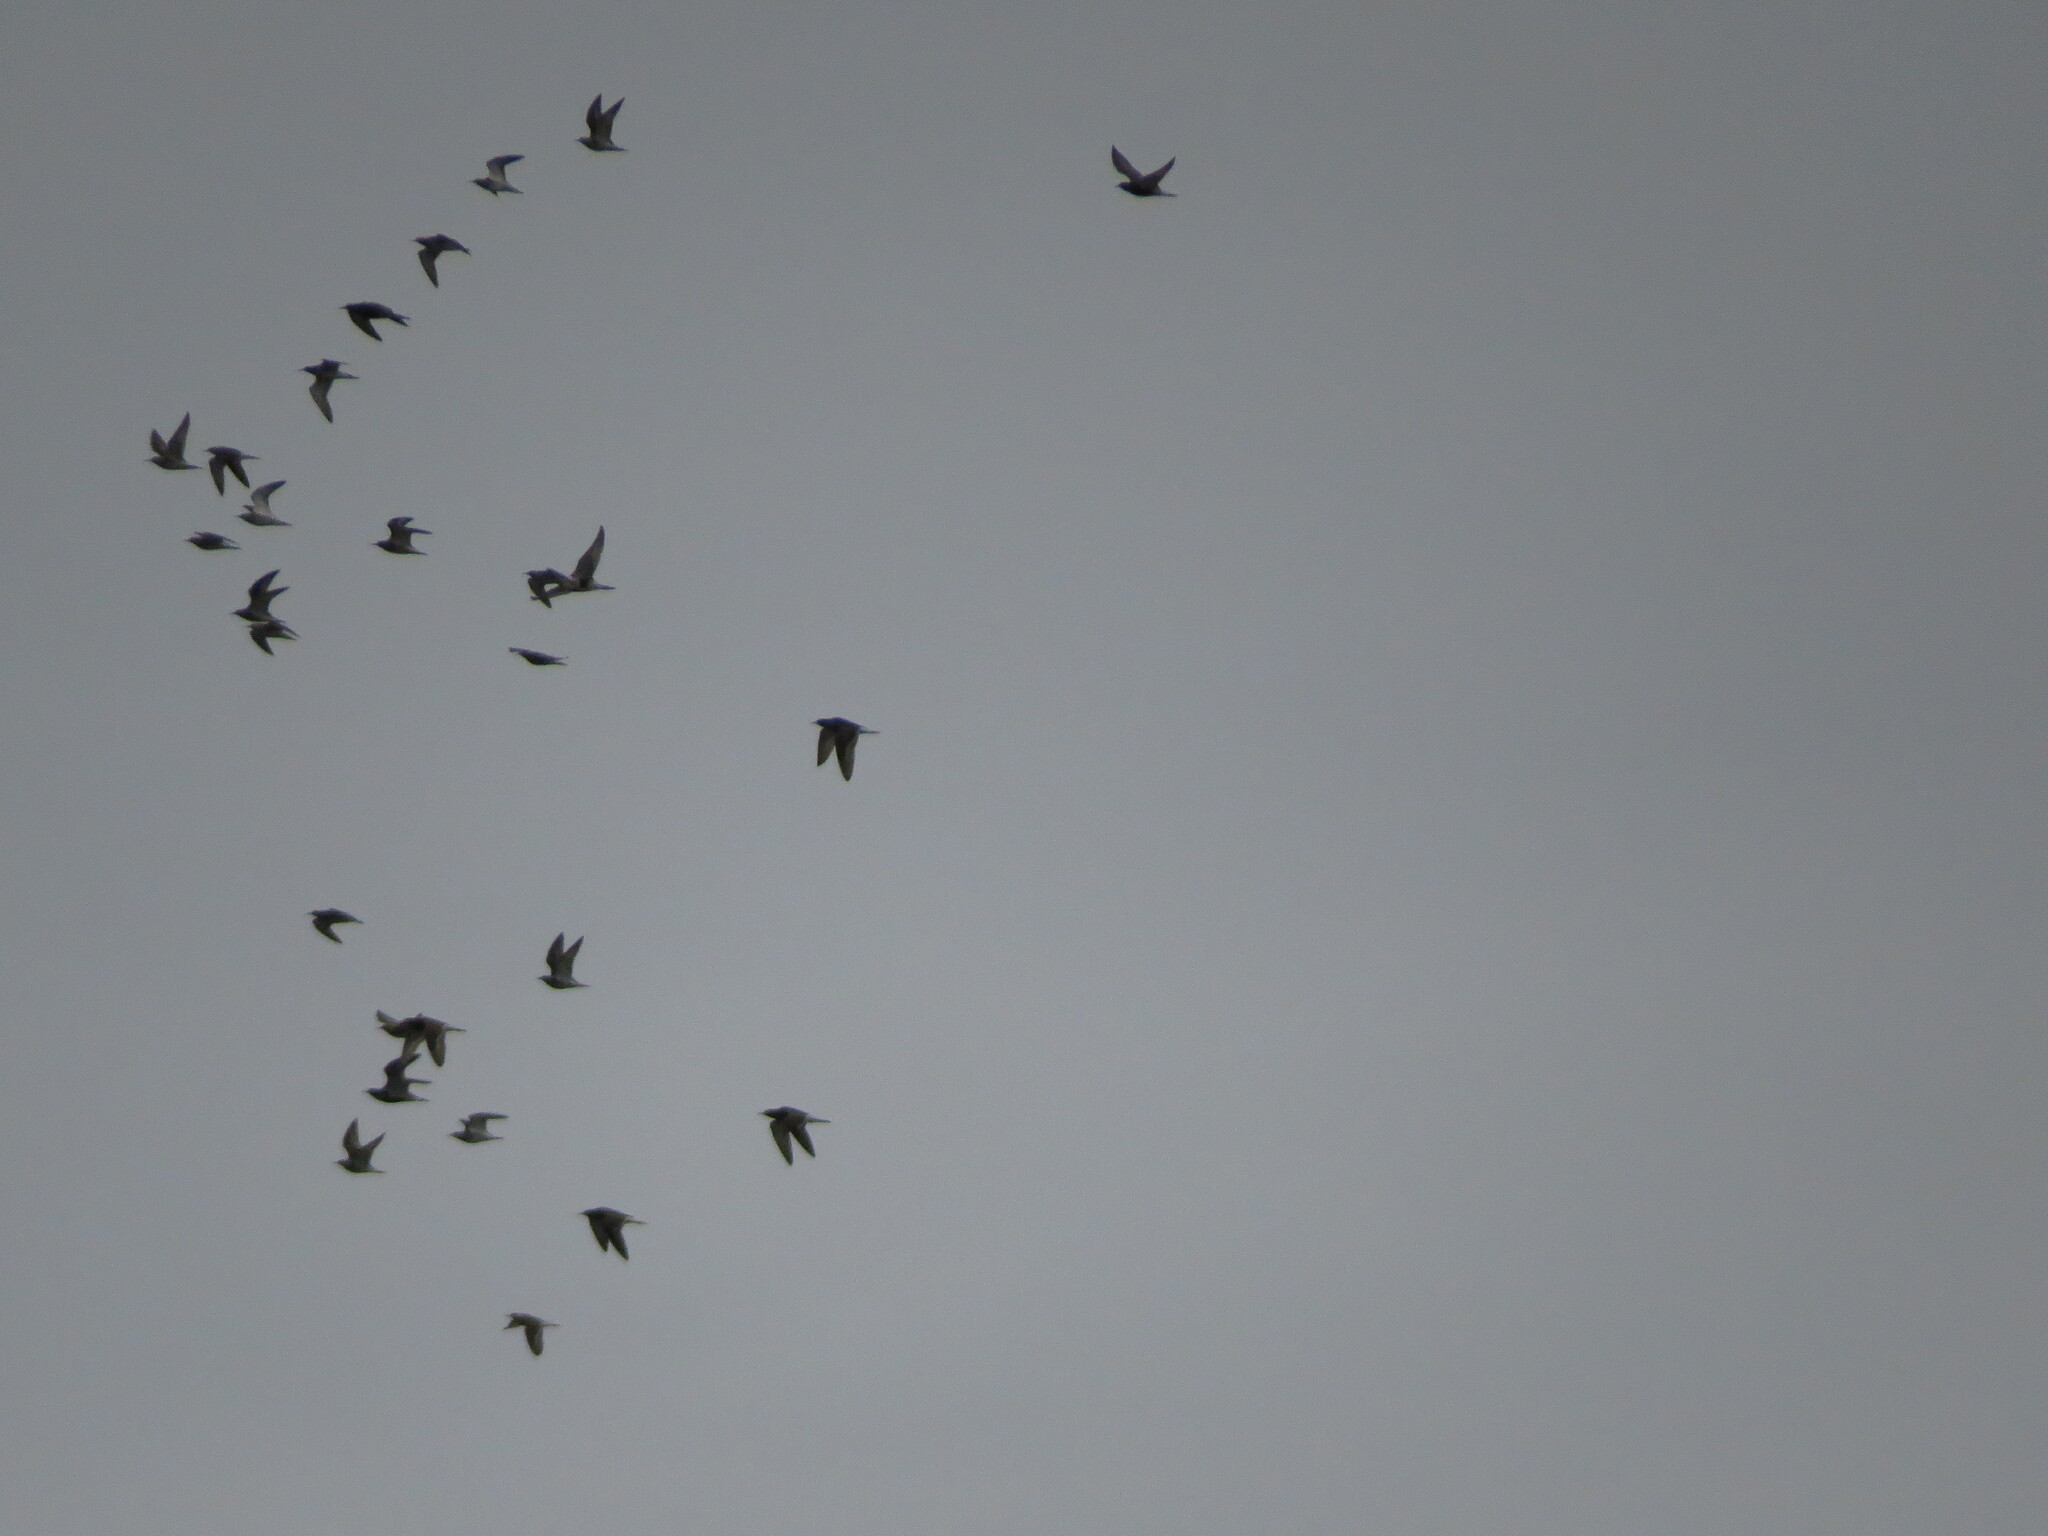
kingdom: Animalia
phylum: Chordata
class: Aves
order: Charadriiformes
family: Scolopacidae
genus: Calidris
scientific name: Calidris pugnax
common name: Ruff
